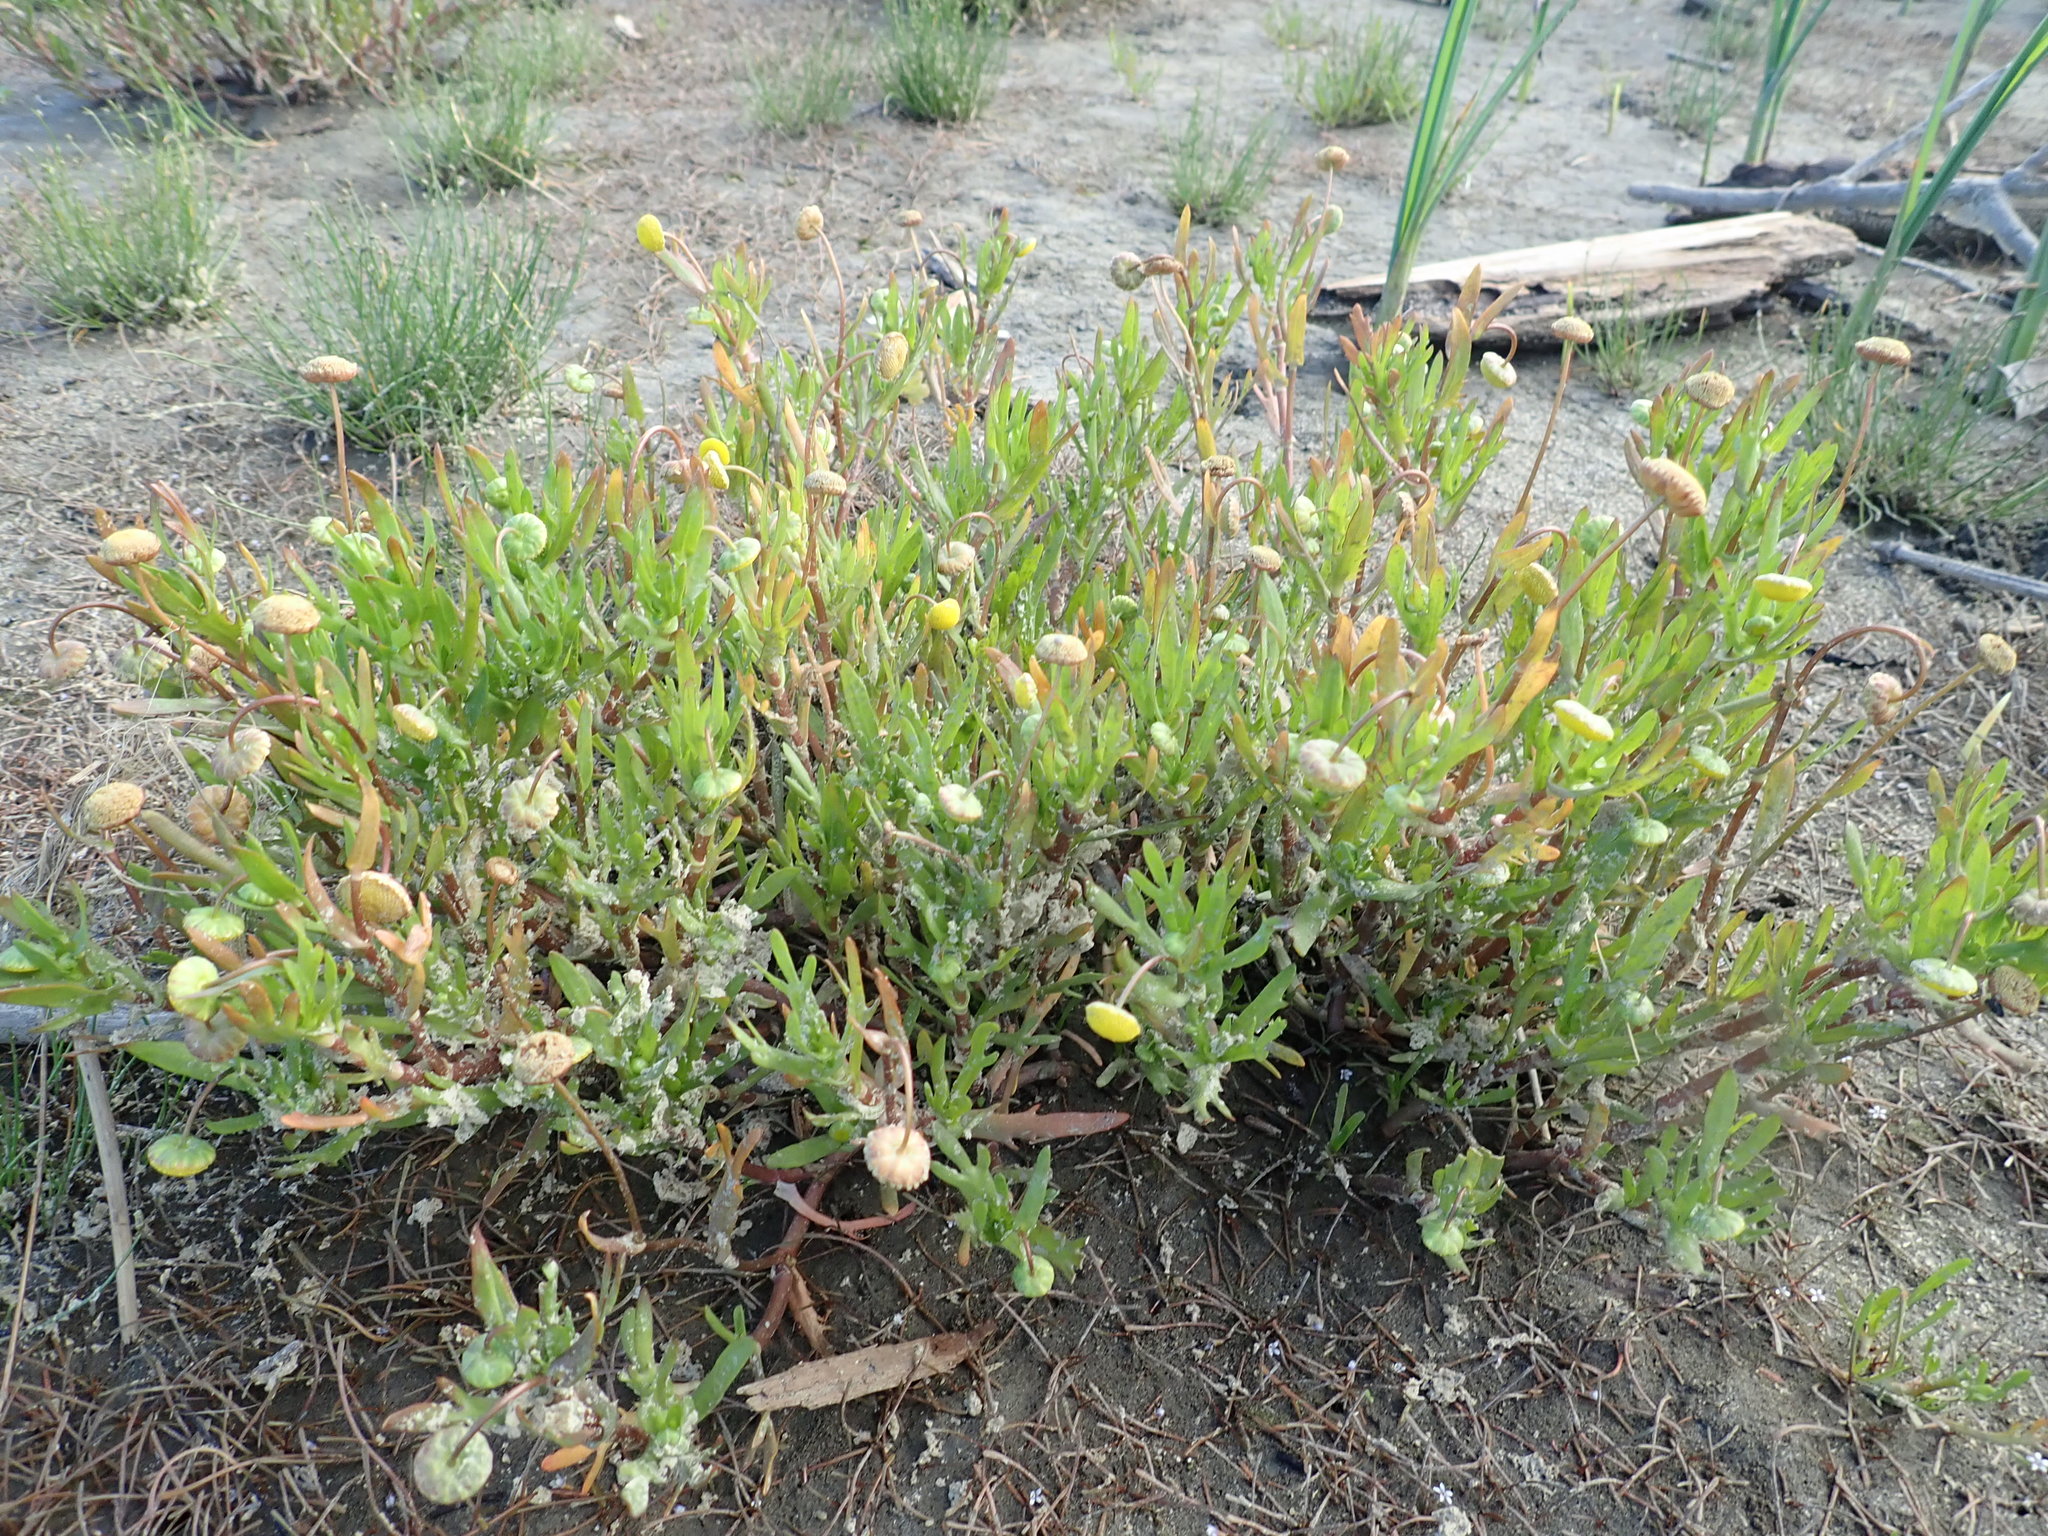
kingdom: Plantae
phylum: Tracheophyta
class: Magnoliopsida
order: Asterales
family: Asteraceae
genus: Cotula
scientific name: Cotula coronopifolia
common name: Buttonweed
